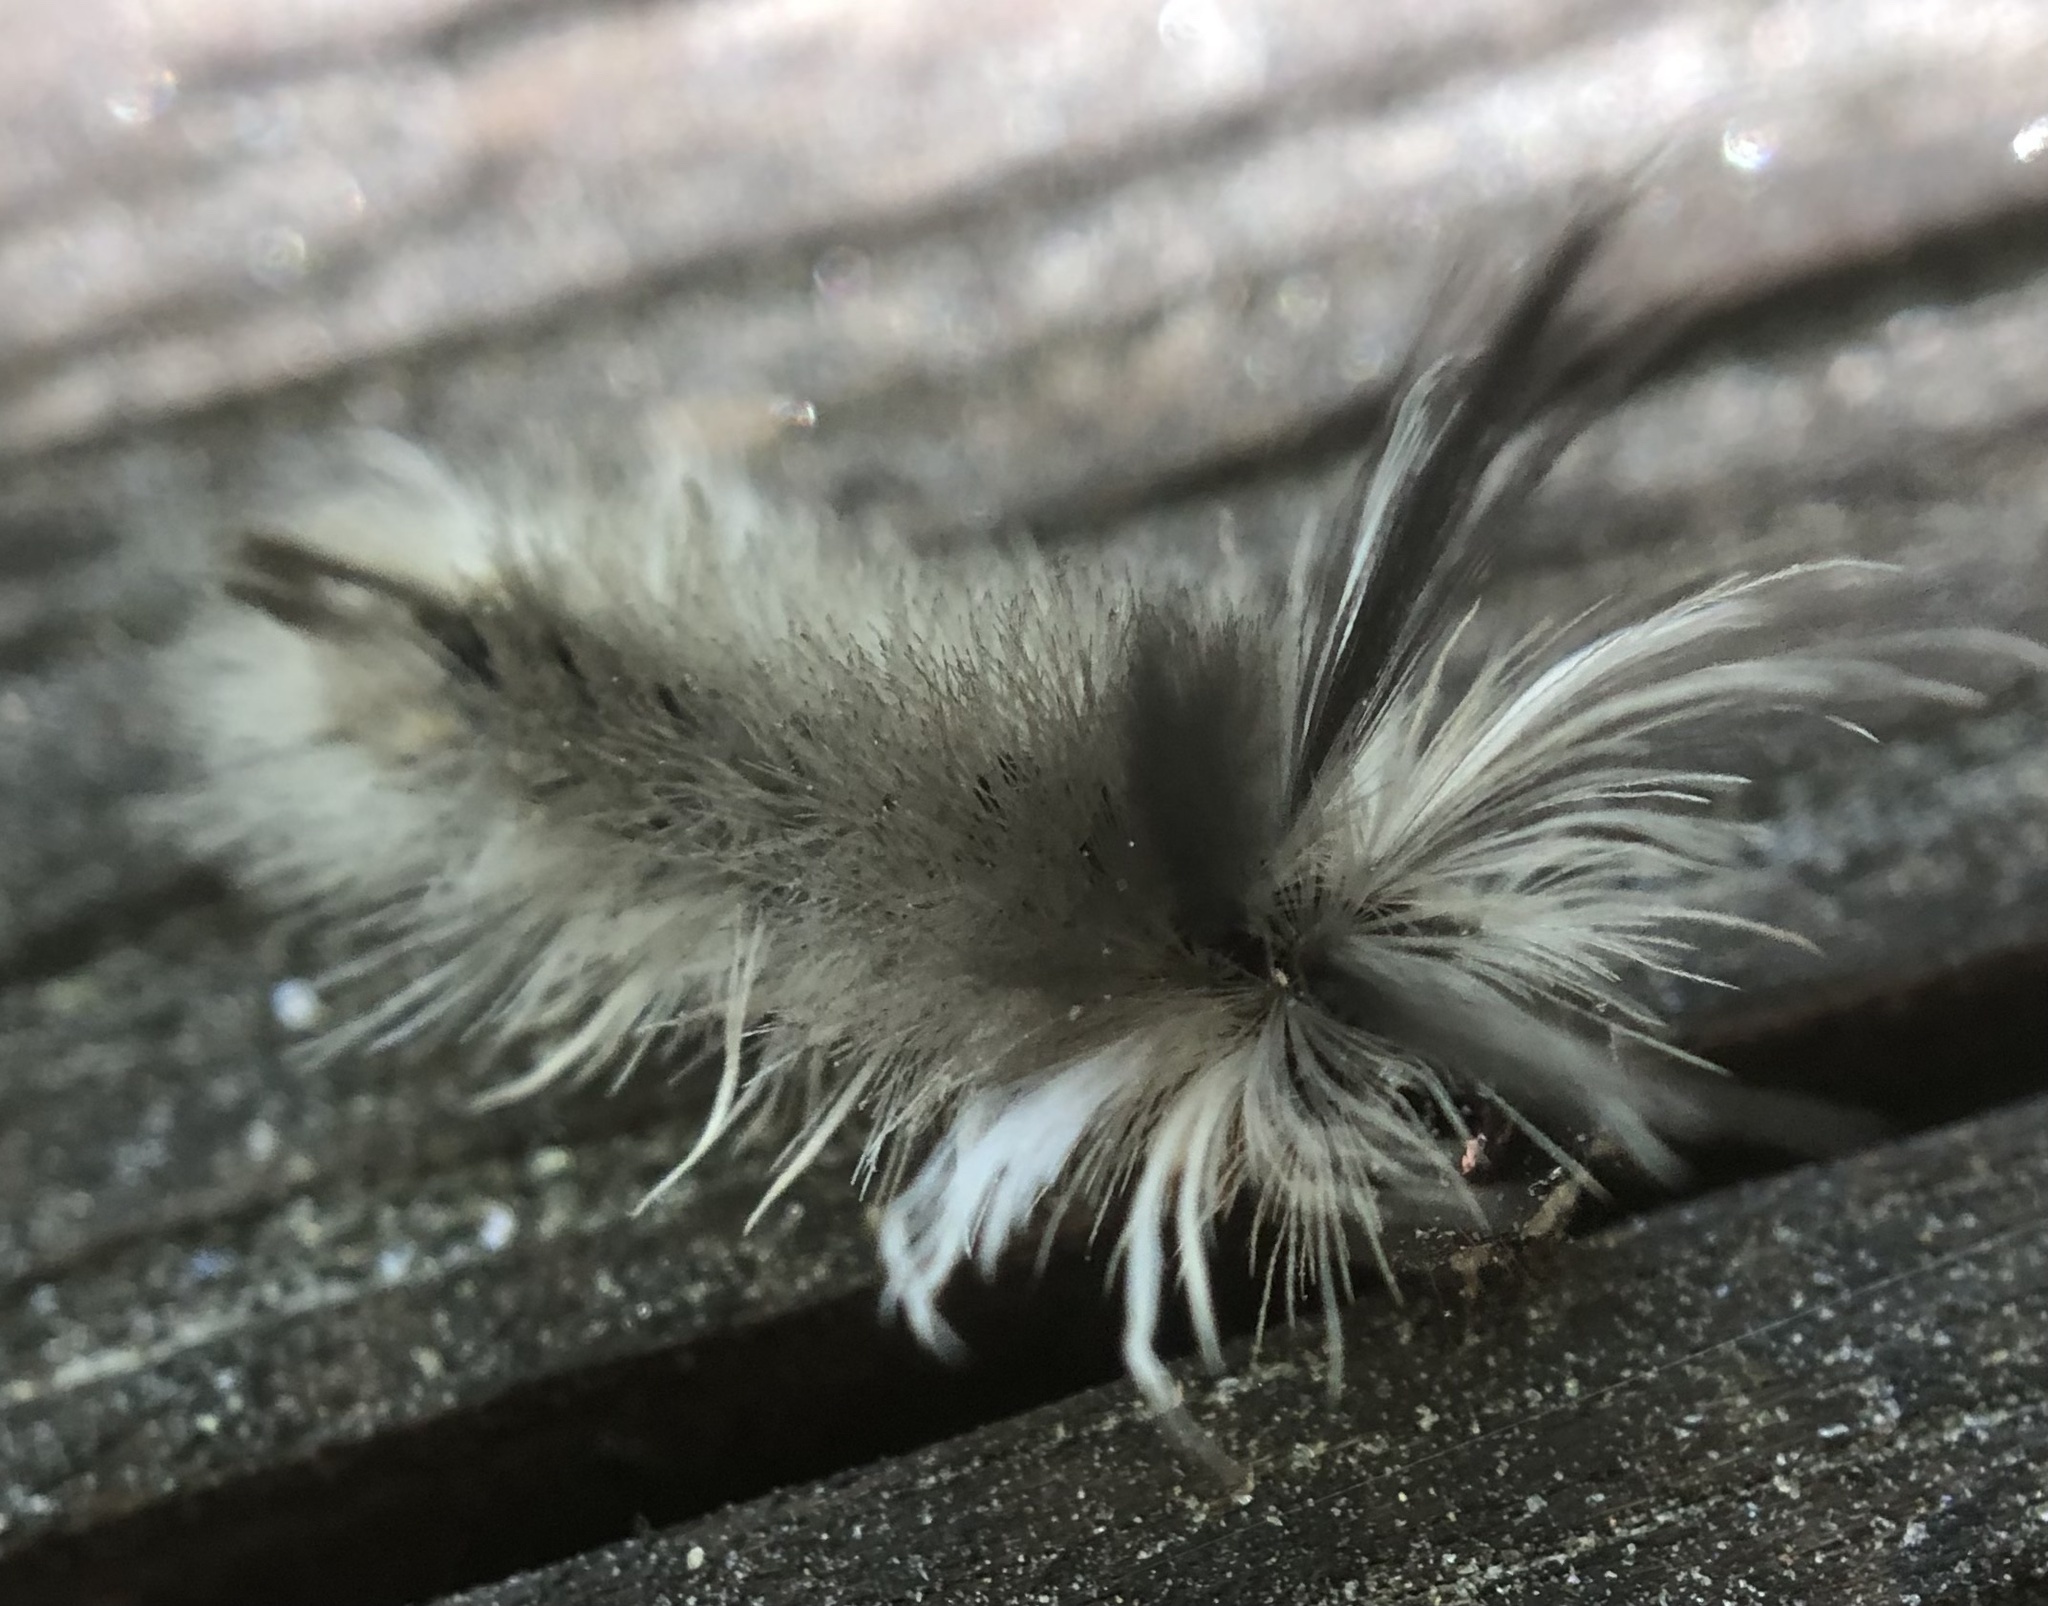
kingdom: Animalia
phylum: Arthropoda
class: Insecta
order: Lepidoptera
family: Erebidae
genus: Halysidota
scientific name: Halysidota tessellaris
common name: Banded tussock moth
